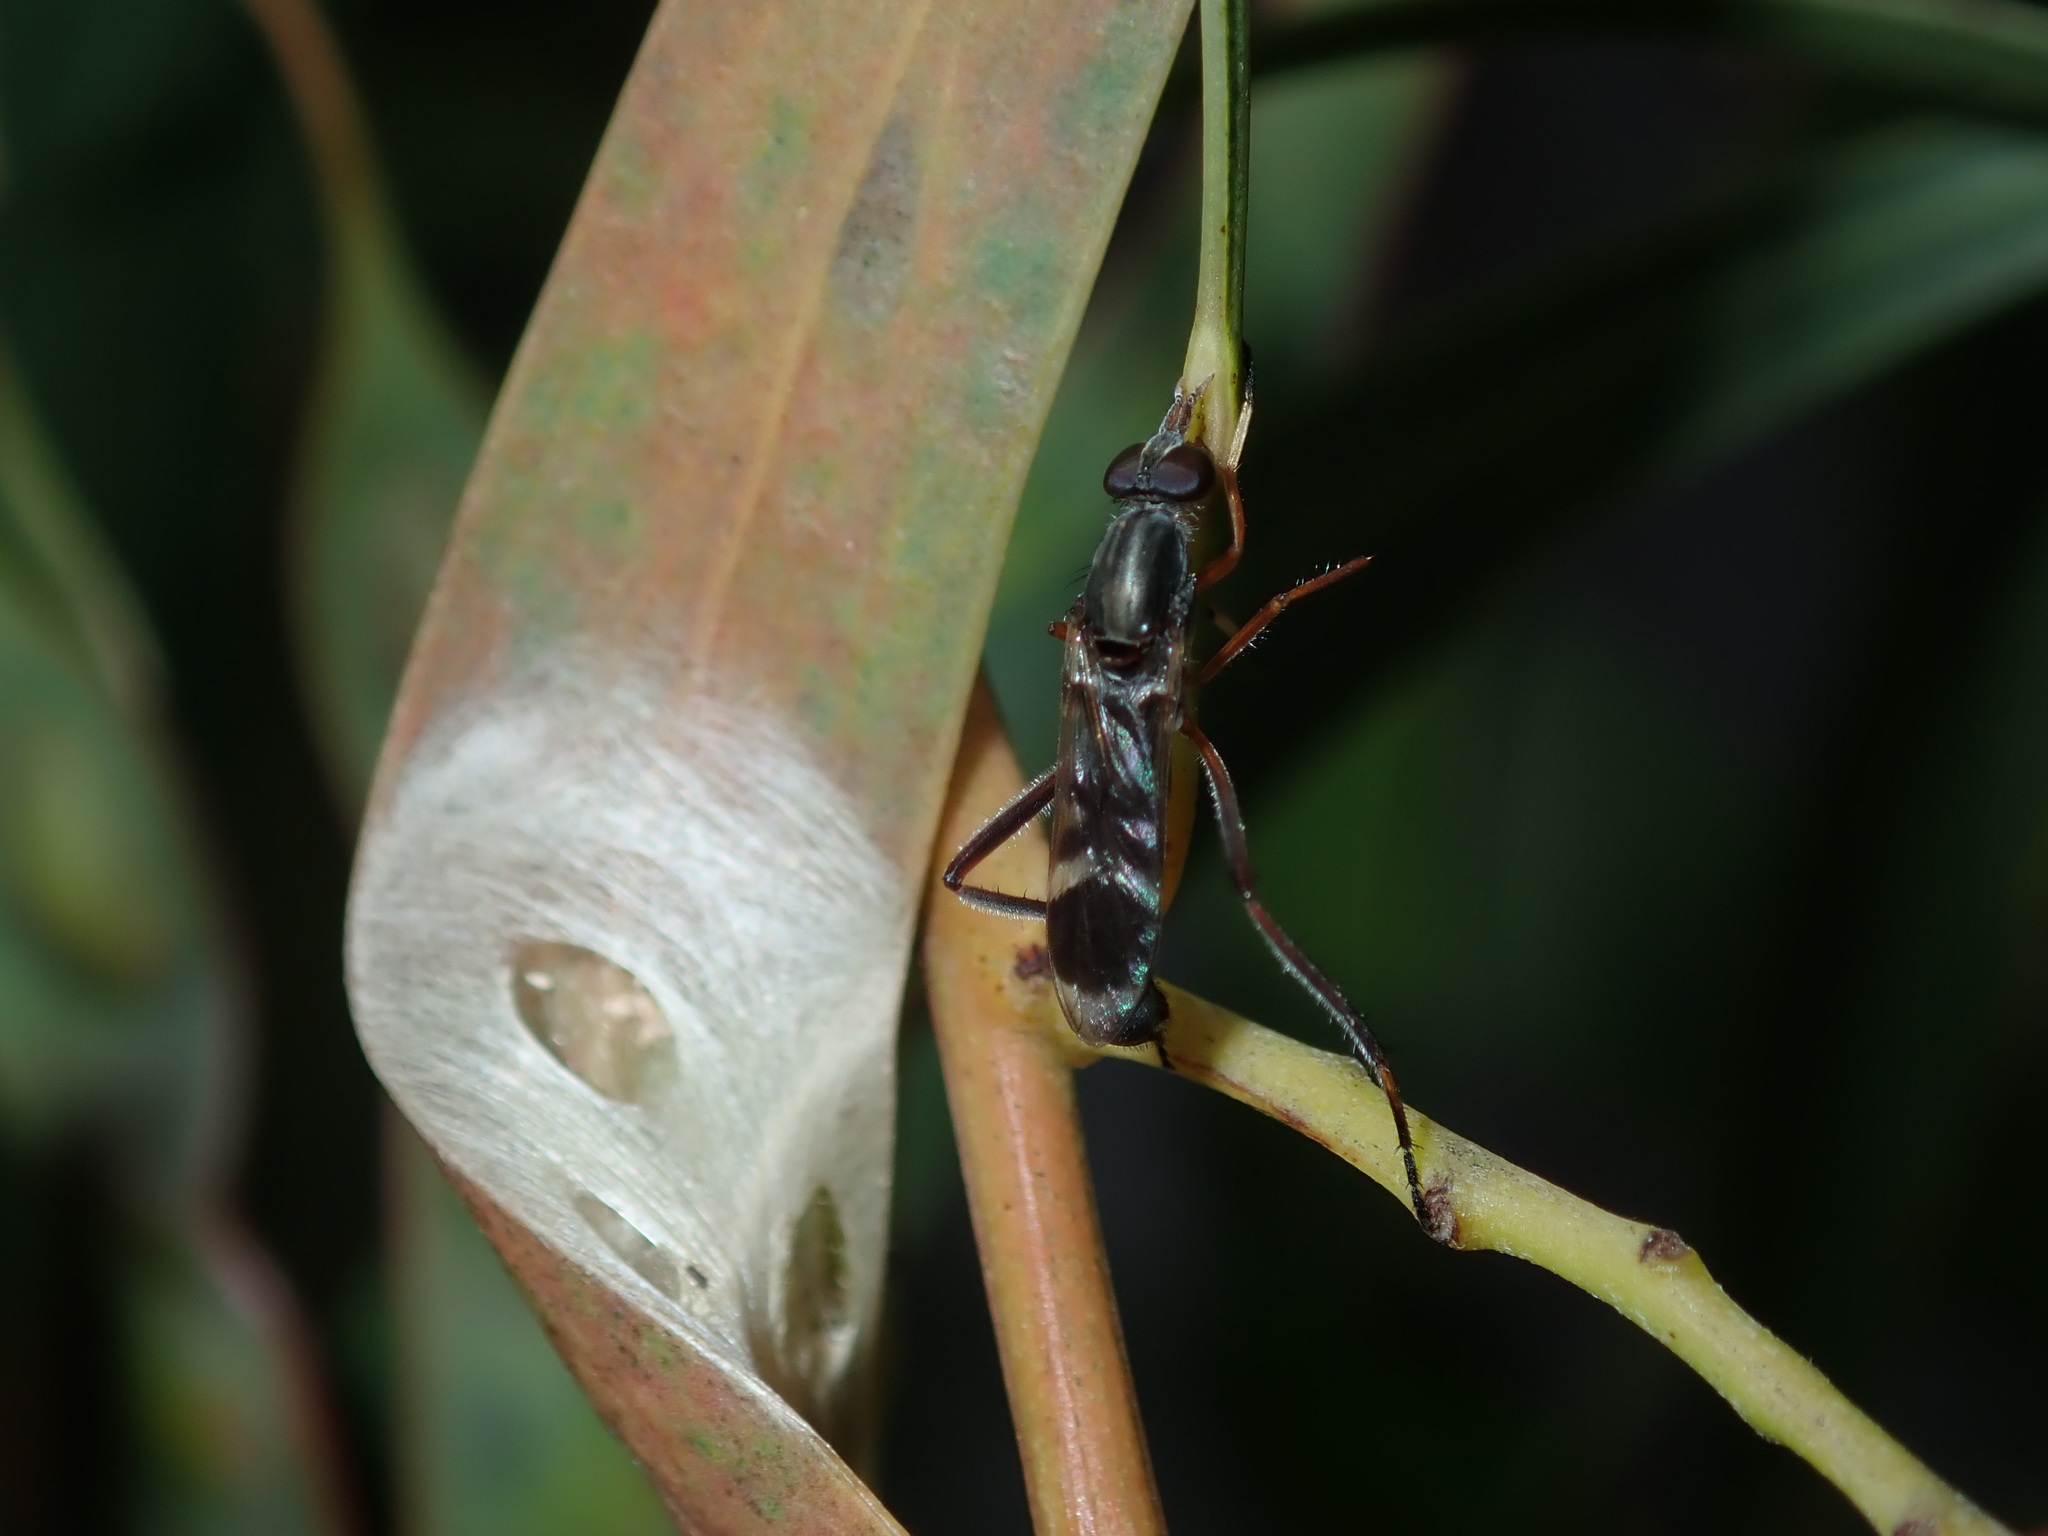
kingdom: Animalia
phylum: Arthropoda
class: Insecta
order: Diptera
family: Therevidae
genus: Ectinorhynchus
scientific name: Ectinorhynchus terminalis
